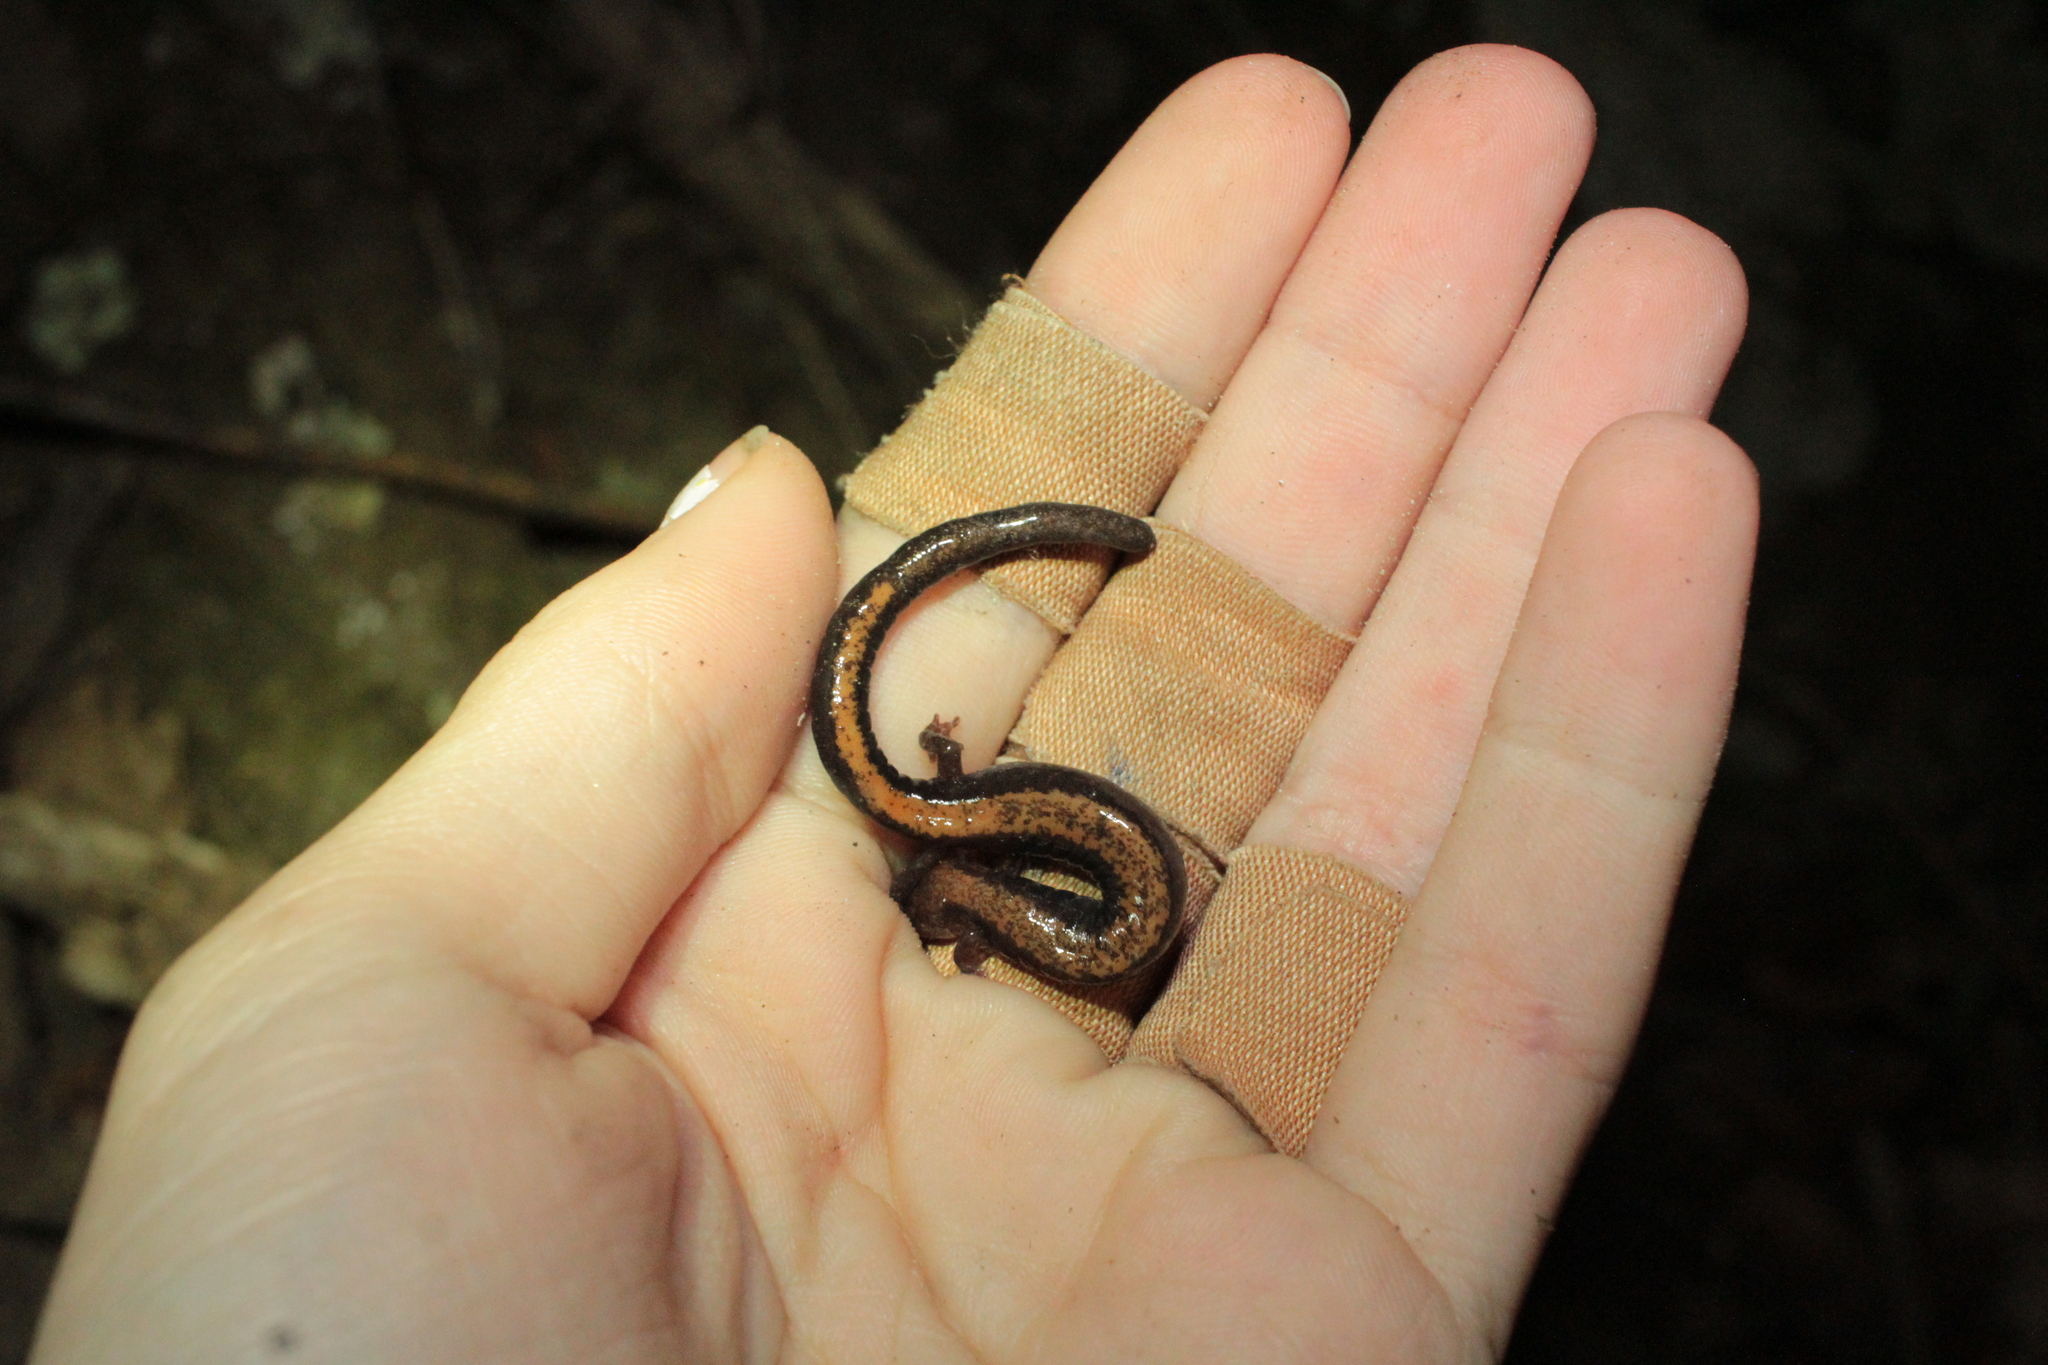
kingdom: Animalia
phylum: Chordata
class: Amphibia
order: Caudata
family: Plethodontidae
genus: Plethodon
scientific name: Plethodon
